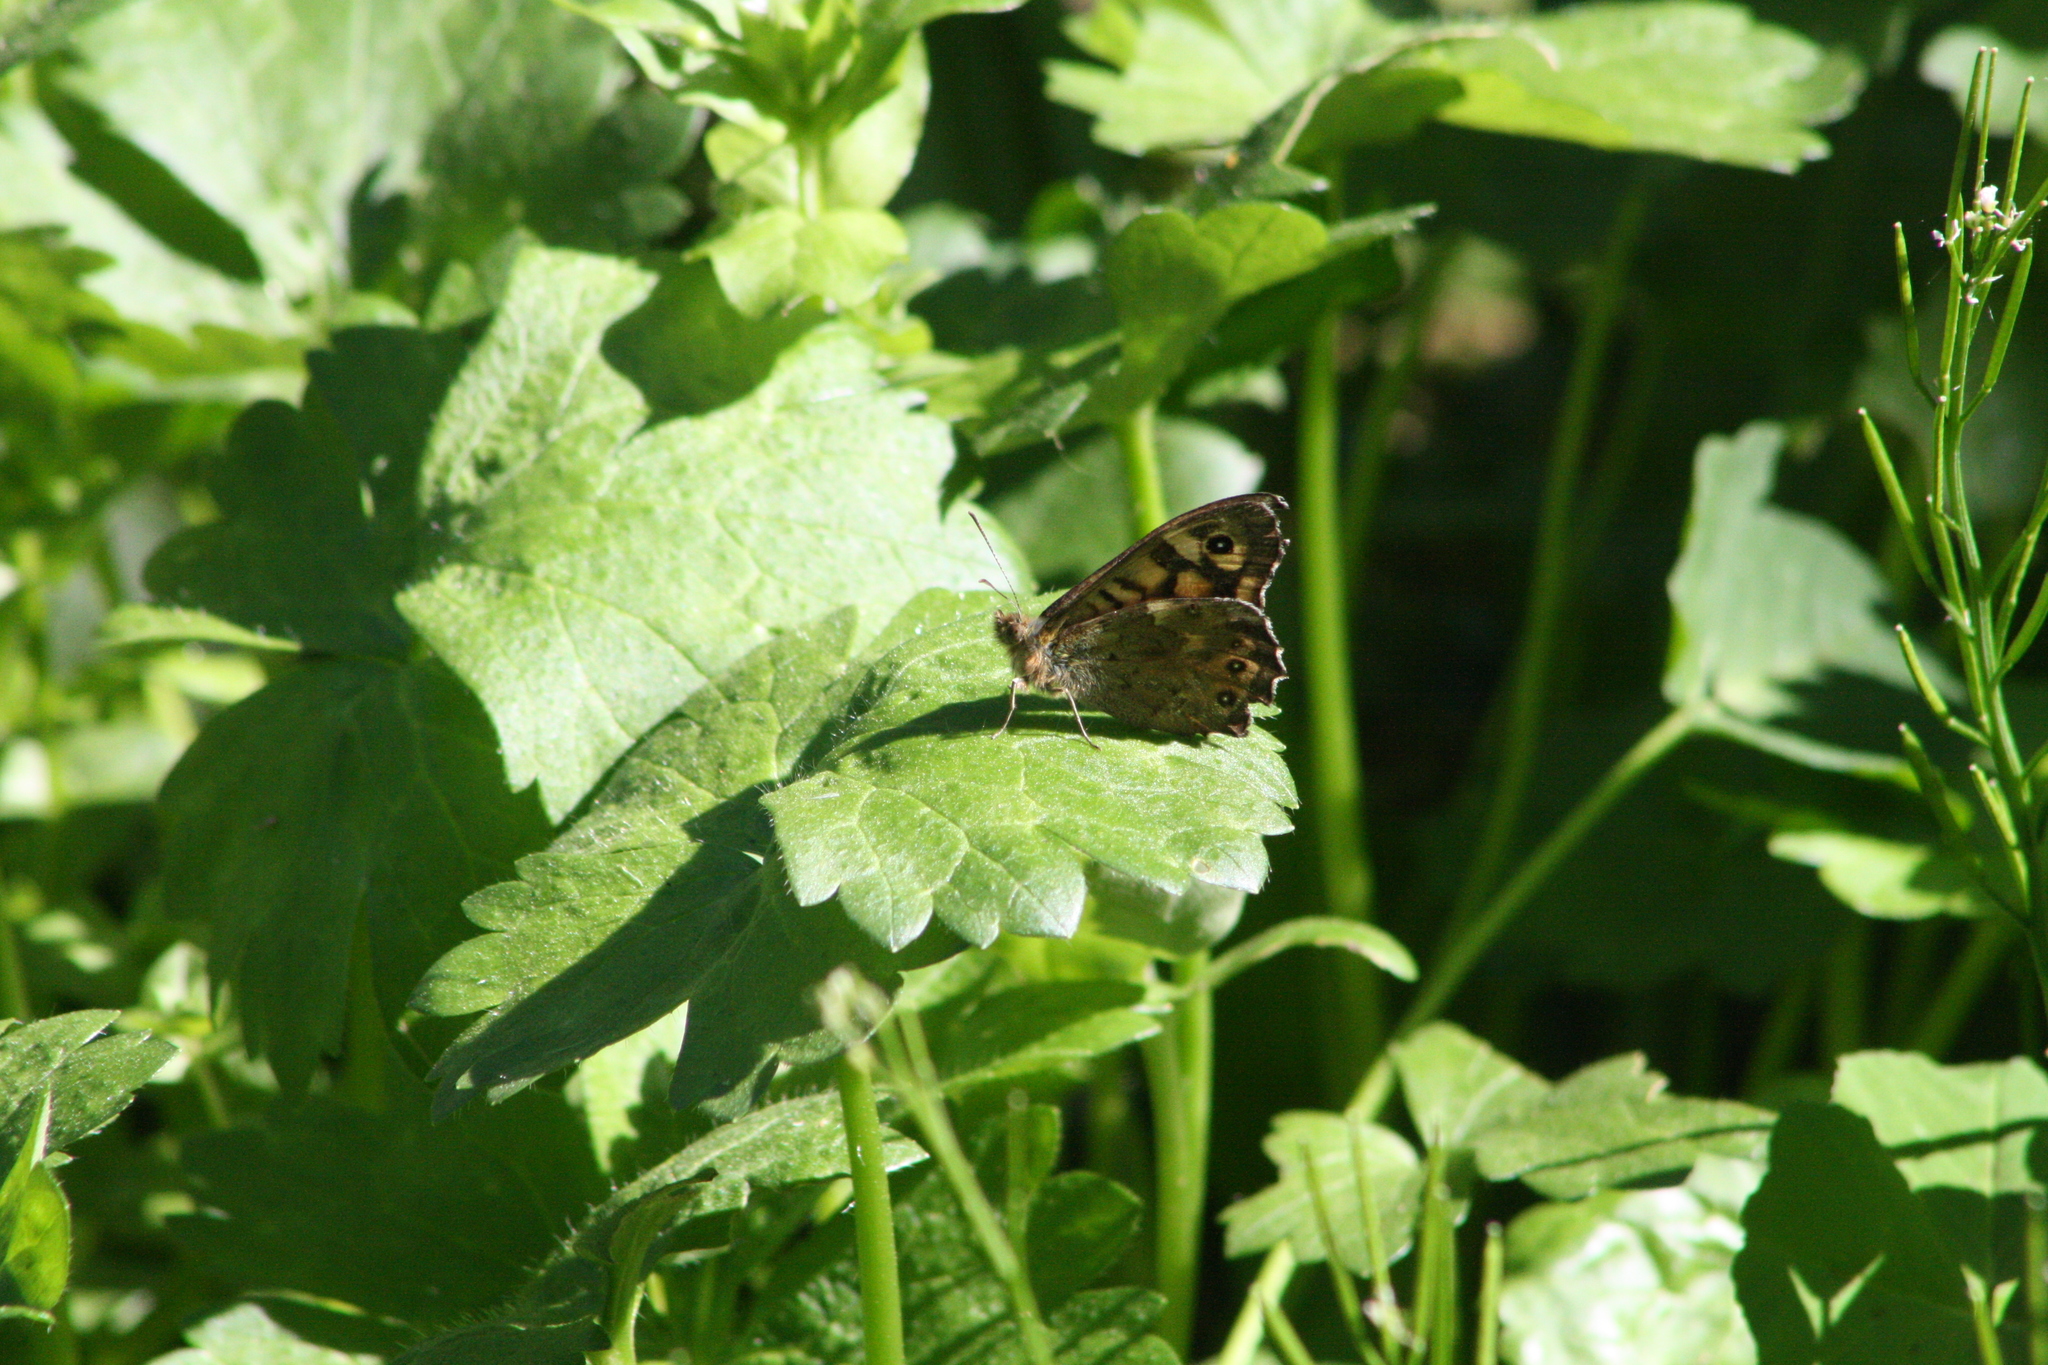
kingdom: Animalia
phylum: Arthropoda
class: Insecta
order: Lepidoptera
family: Nymphalidae
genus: Pararge
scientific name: Pararge aegeria
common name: Speckled wood
